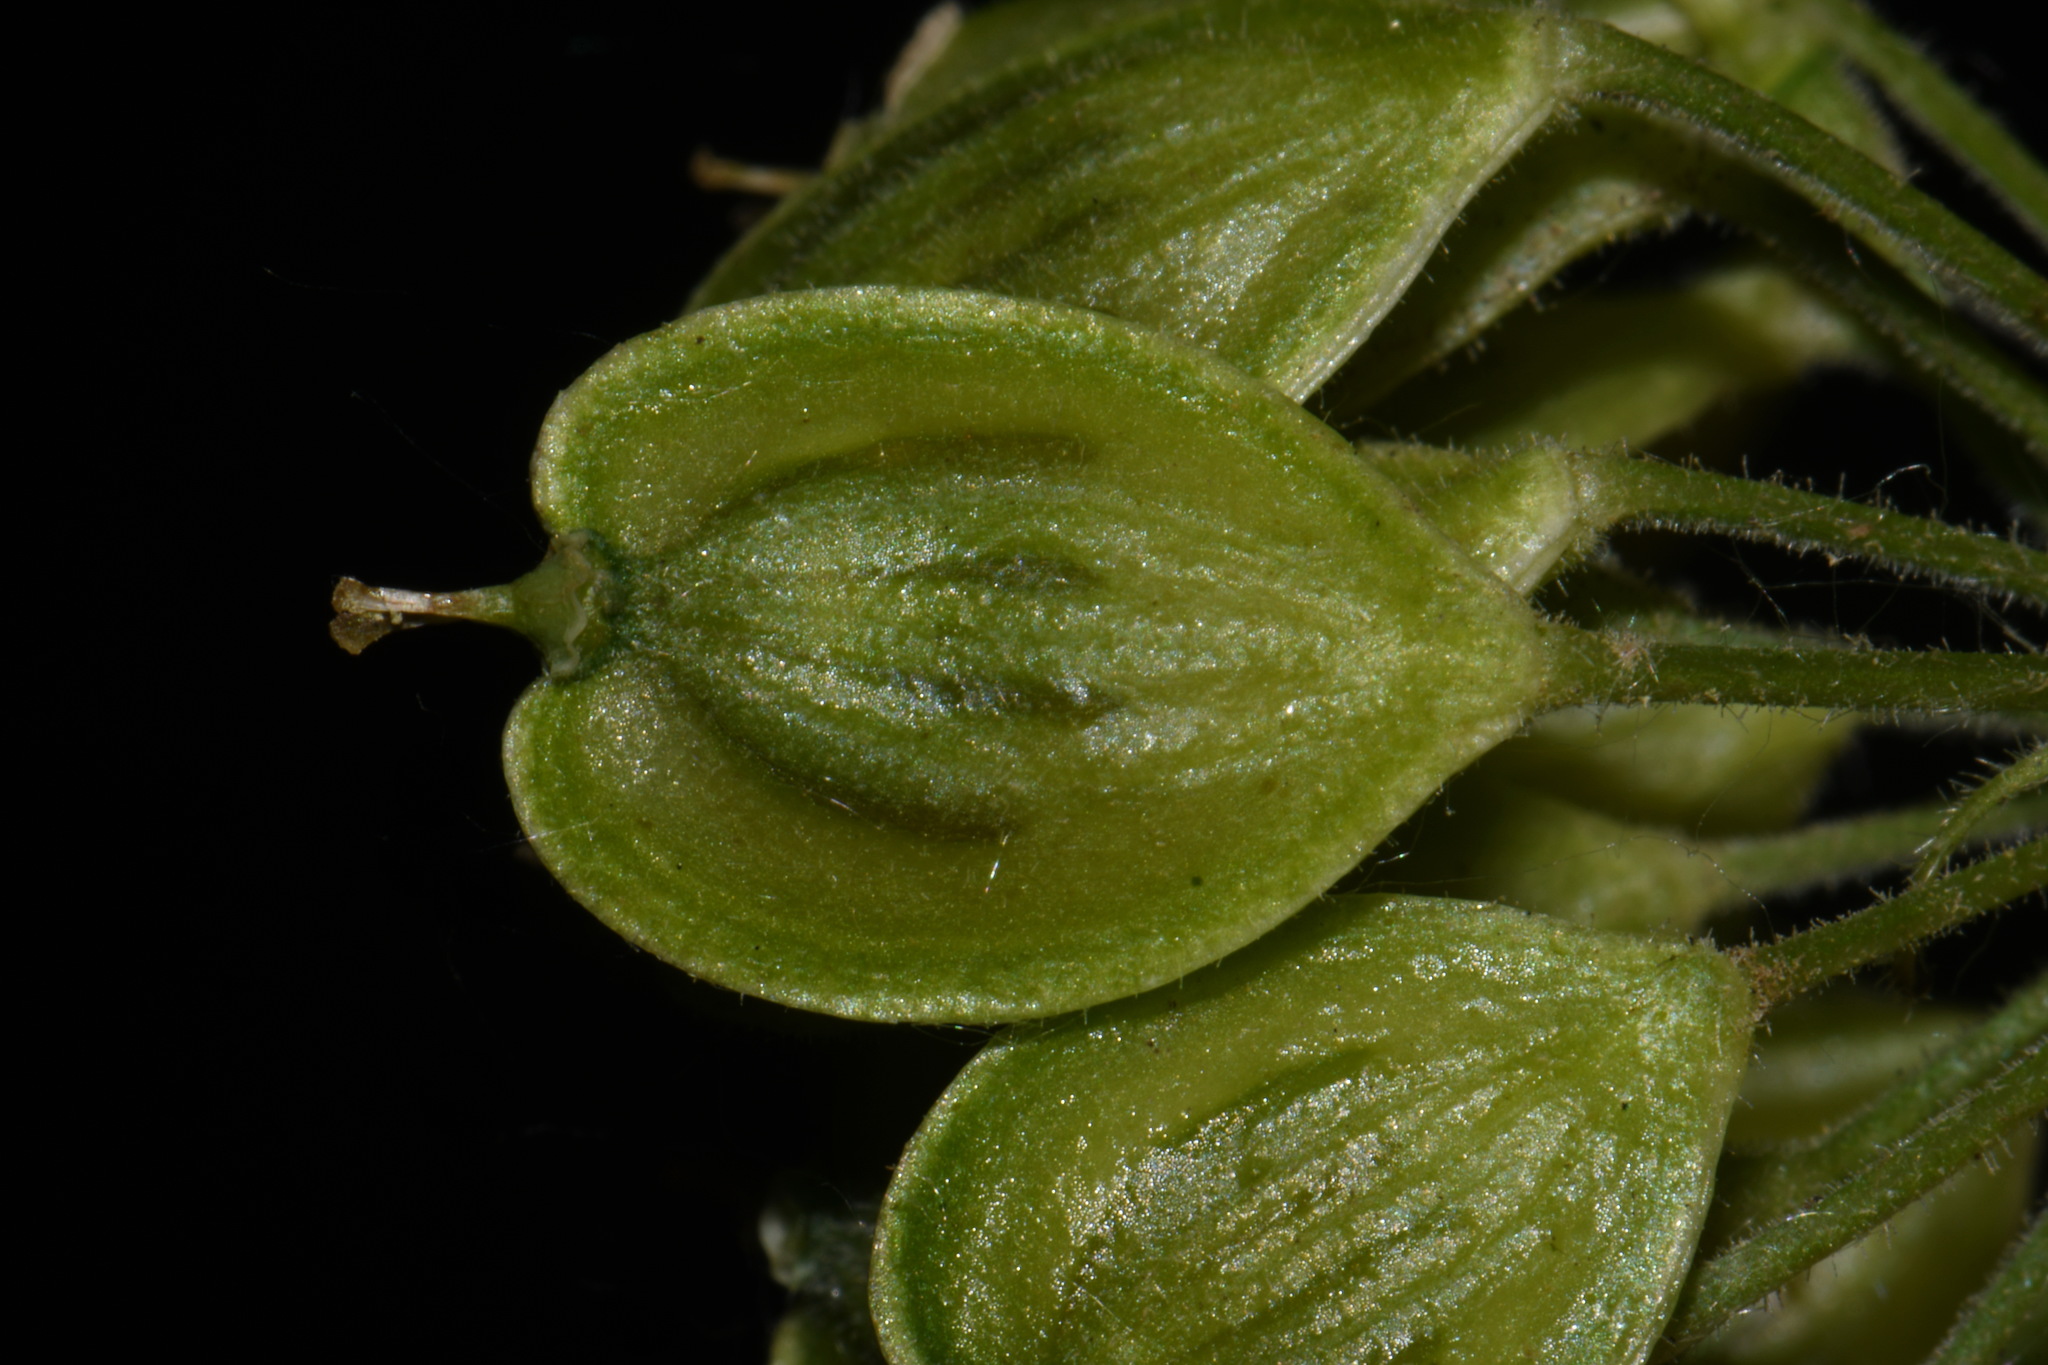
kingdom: Plantae
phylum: Tracheophyta
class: Magnoliopsida
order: Apiales
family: Apiaceae
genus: Heracleum
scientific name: Heracleum maximum
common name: American cow parsnip
